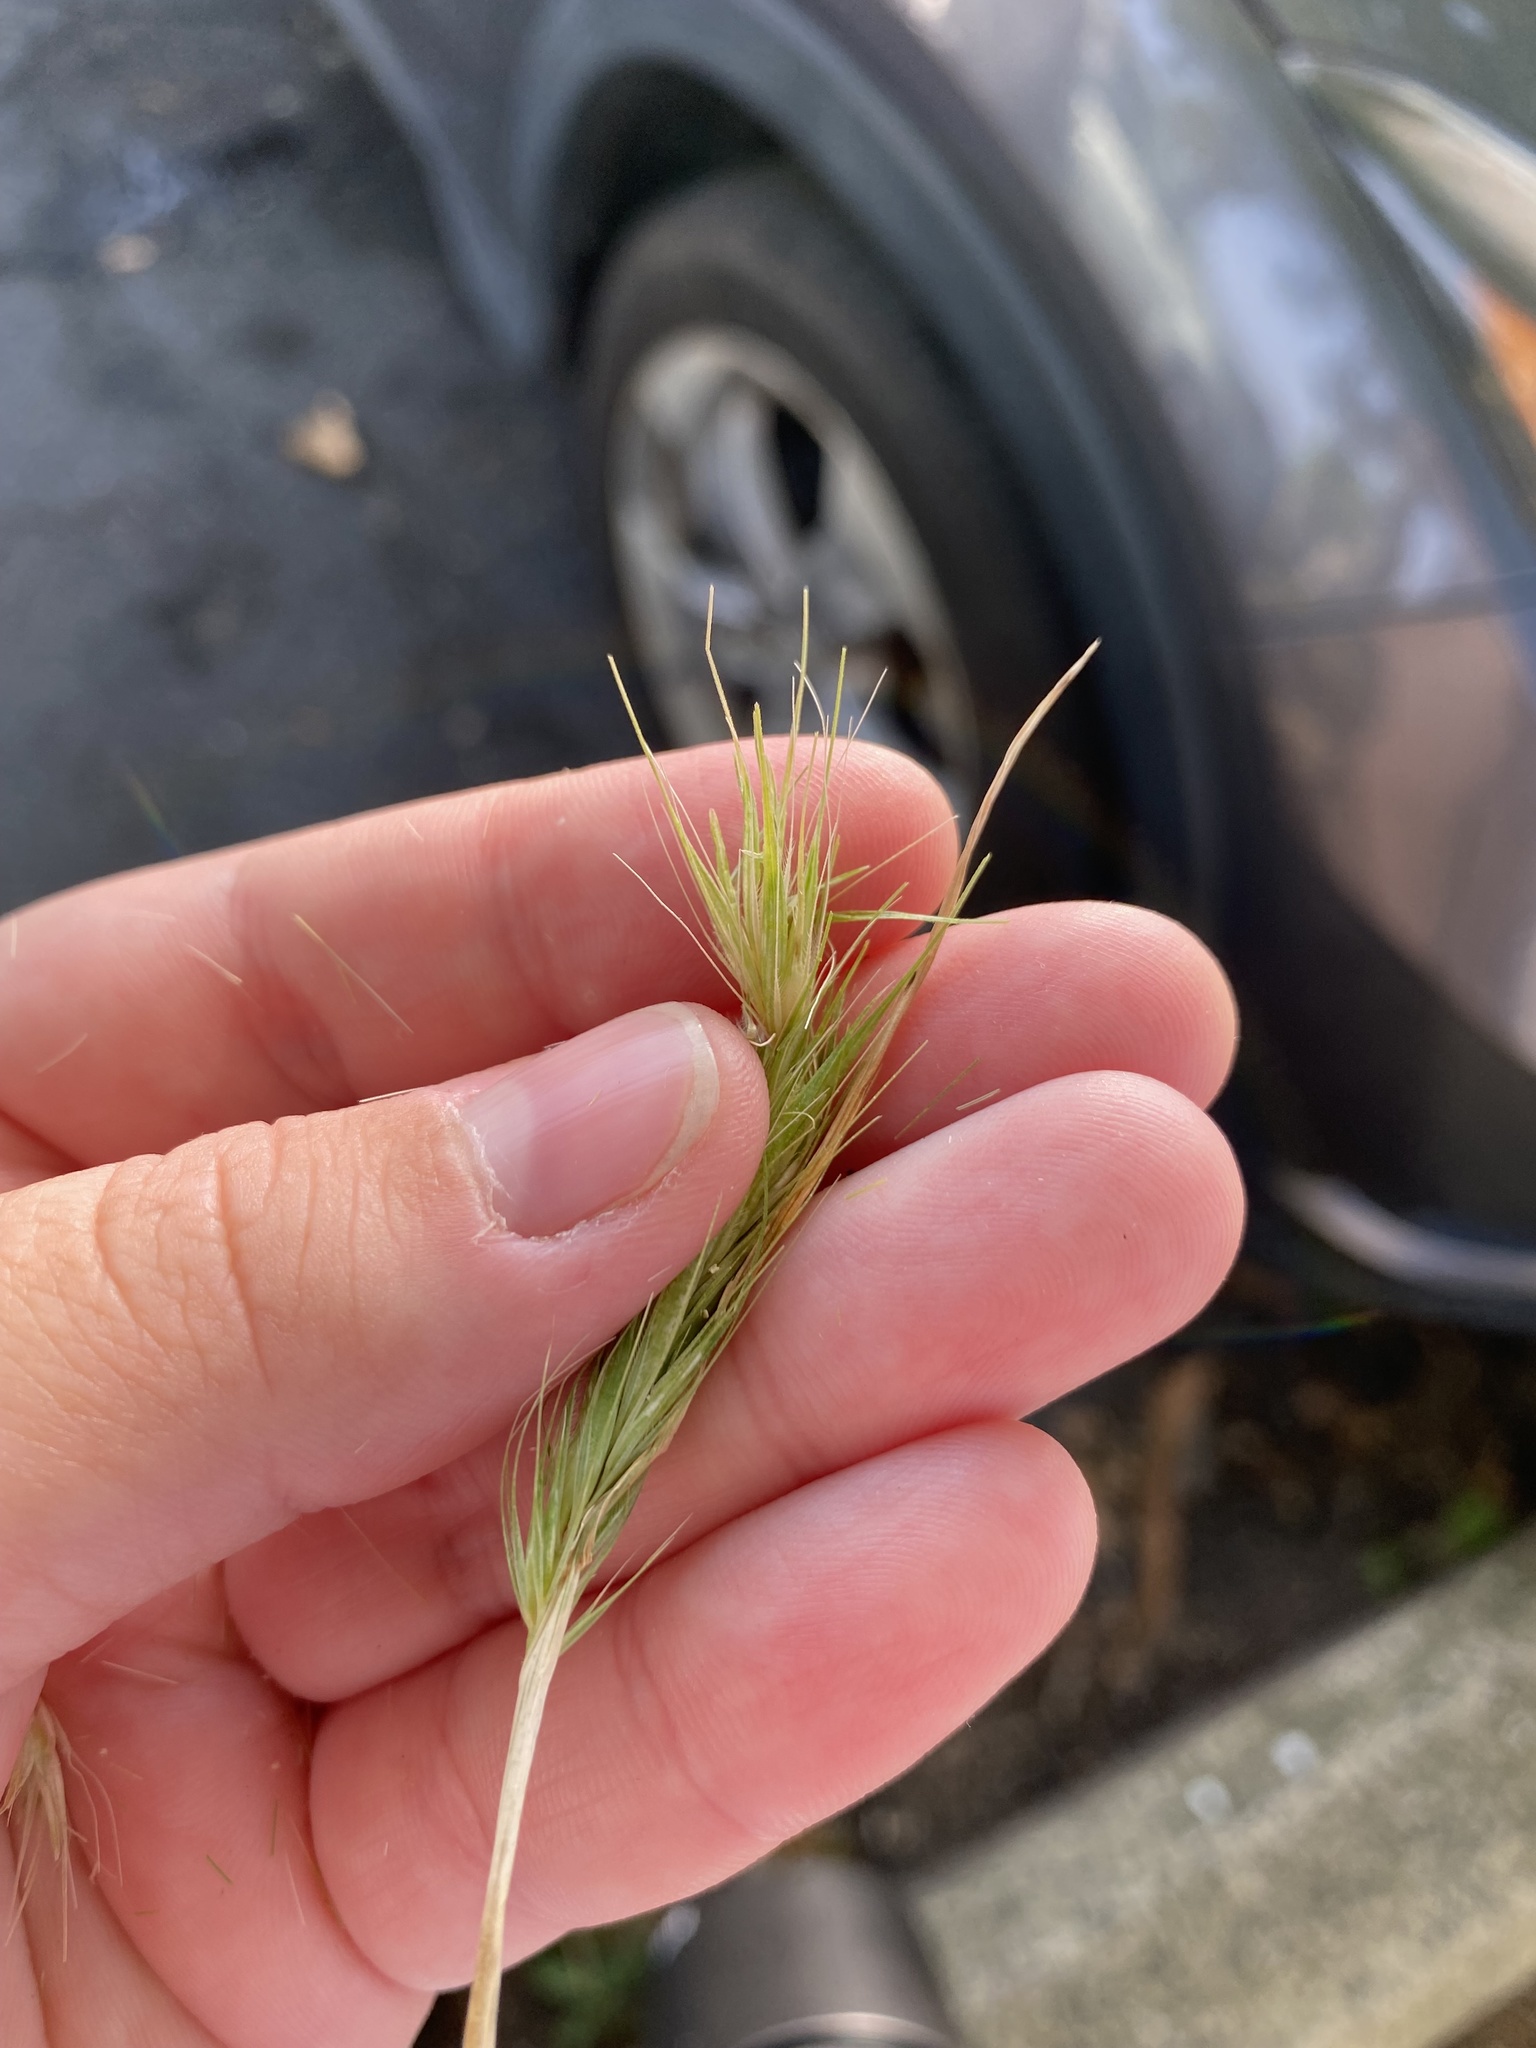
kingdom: Plantae
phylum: Tracheophyta
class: Liliopsida
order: Poales
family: Poaceae
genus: Hordeum
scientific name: Hordeum murinum
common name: Wall barley
